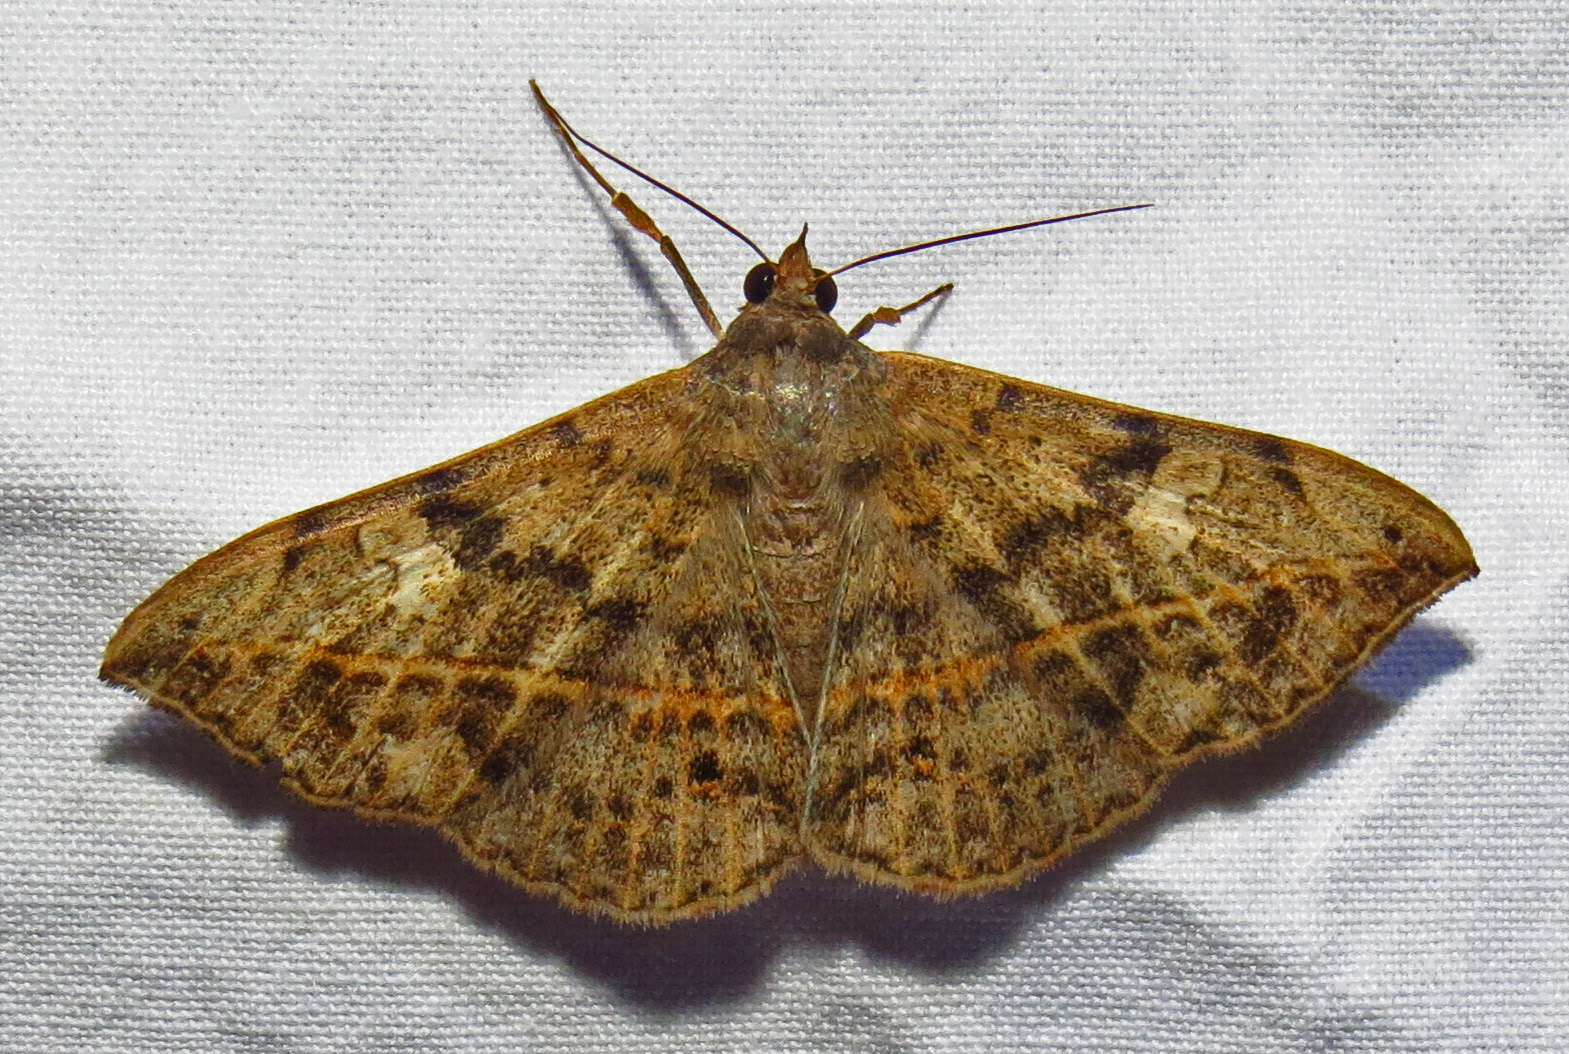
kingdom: Animalia
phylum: Arthropoda
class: Insecta
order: Lepidoptera
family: Erebidae
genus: Anticarsia
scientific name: Anticarsia gemmatalis
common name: Cutworm moth
